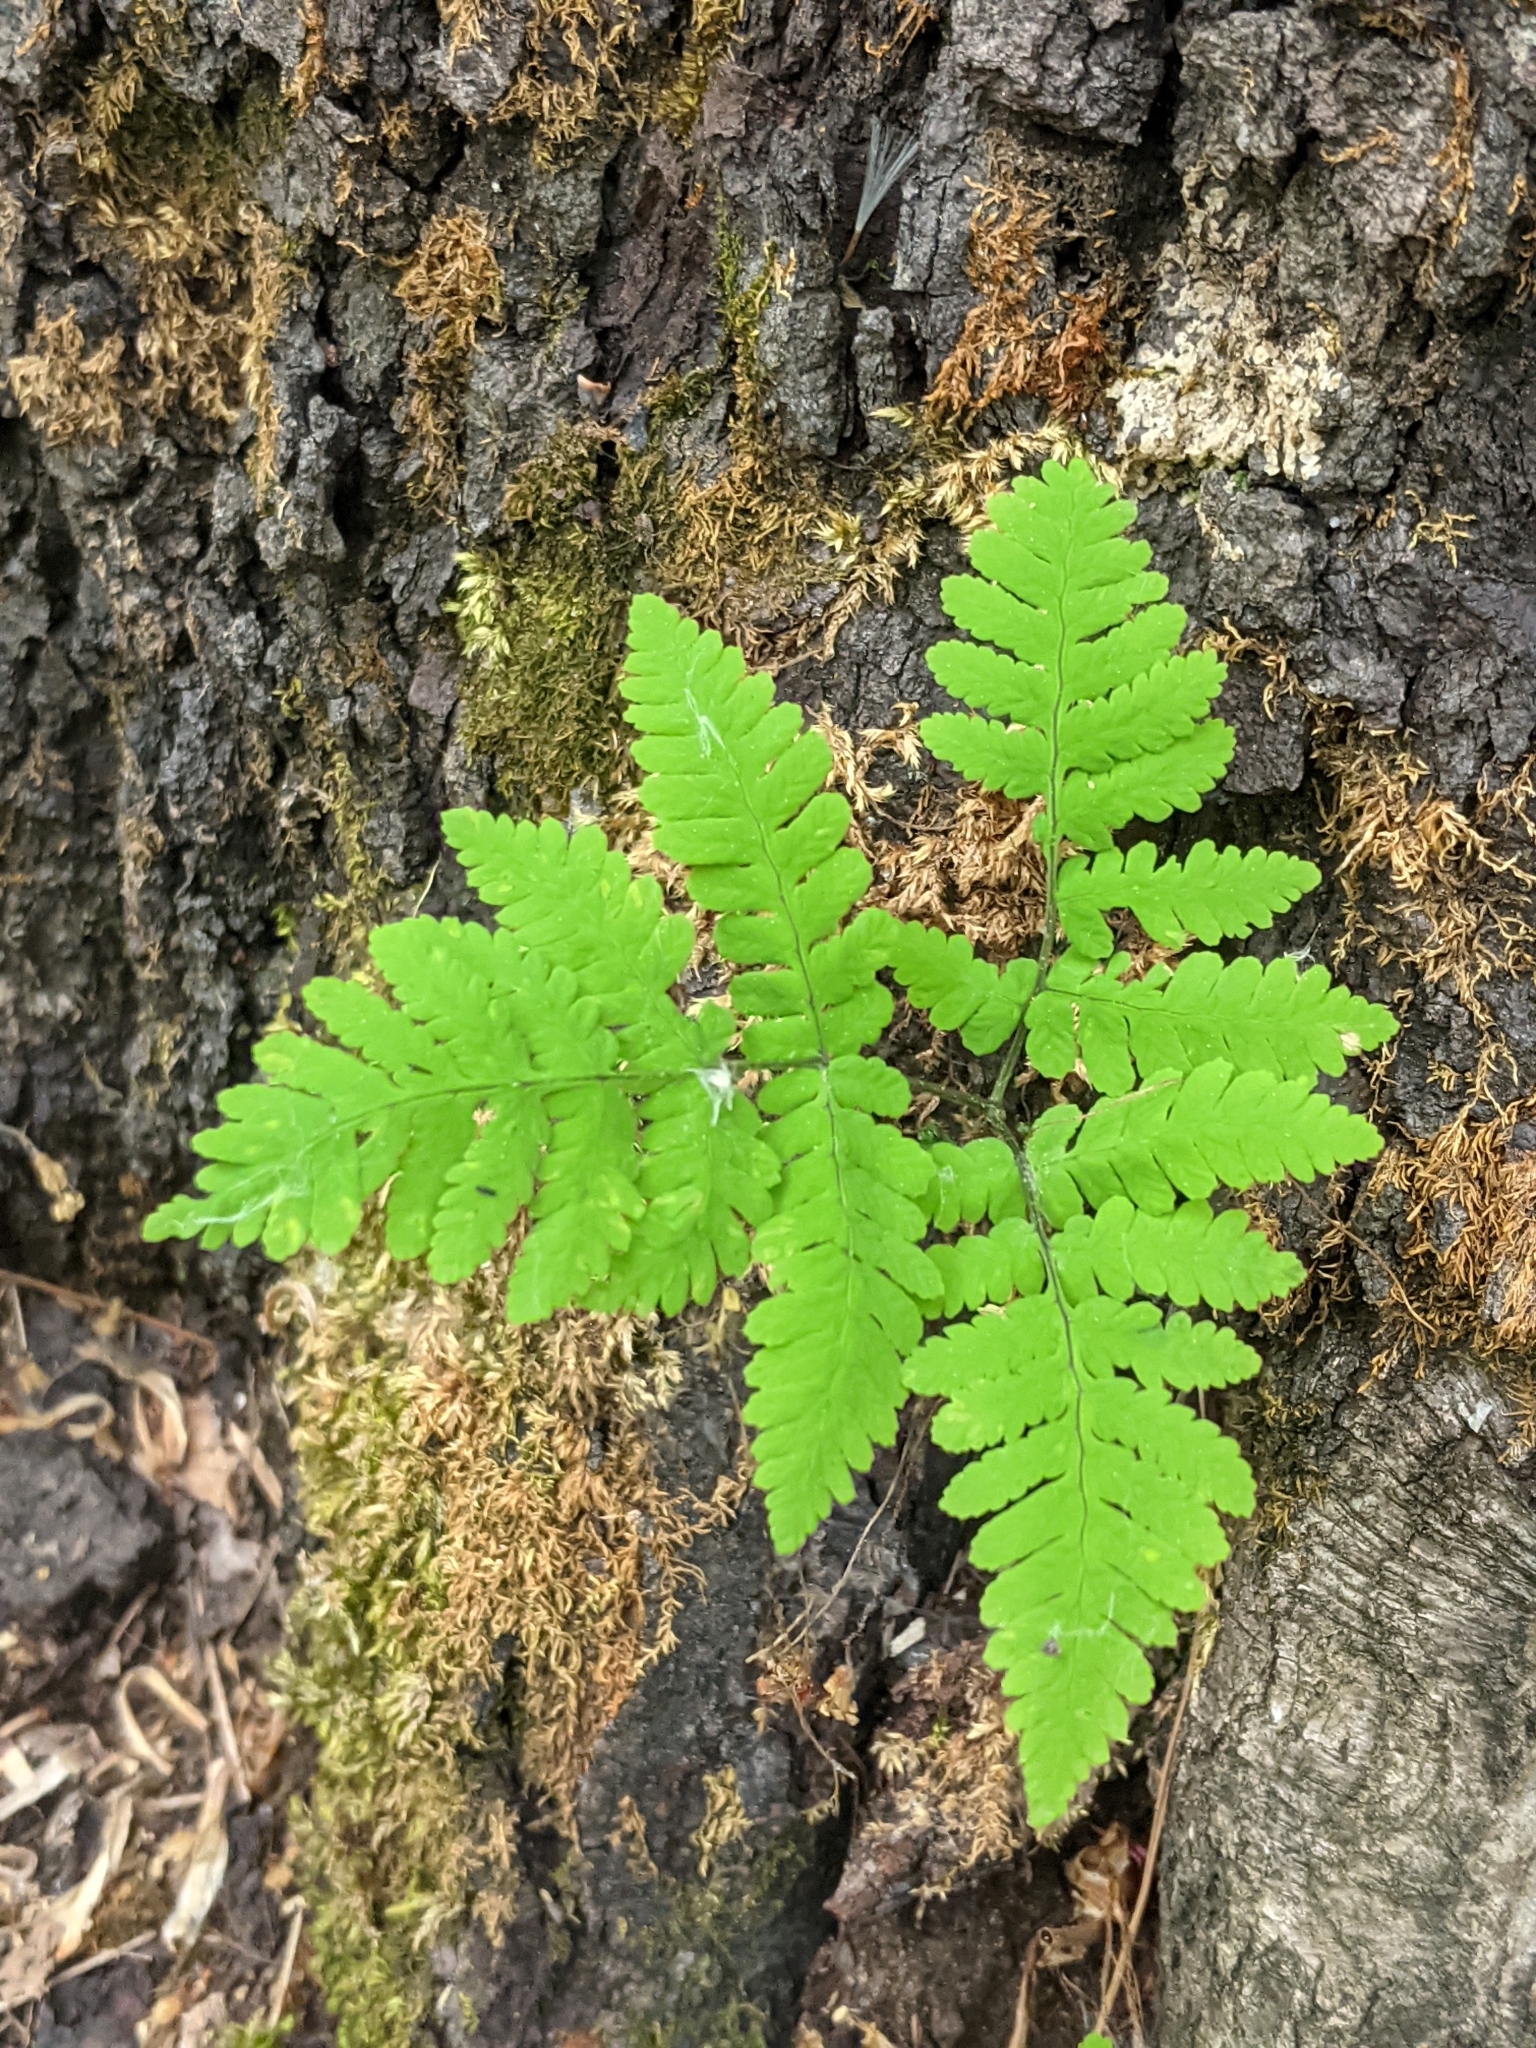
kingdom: Plantae
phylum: Tracheophyta
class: Polypodiopsida
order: Polypodiales
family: Cystopteridaceae
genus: Gymnocarpium
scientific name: Gymnocarpium dryopteris
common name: Oak fern
